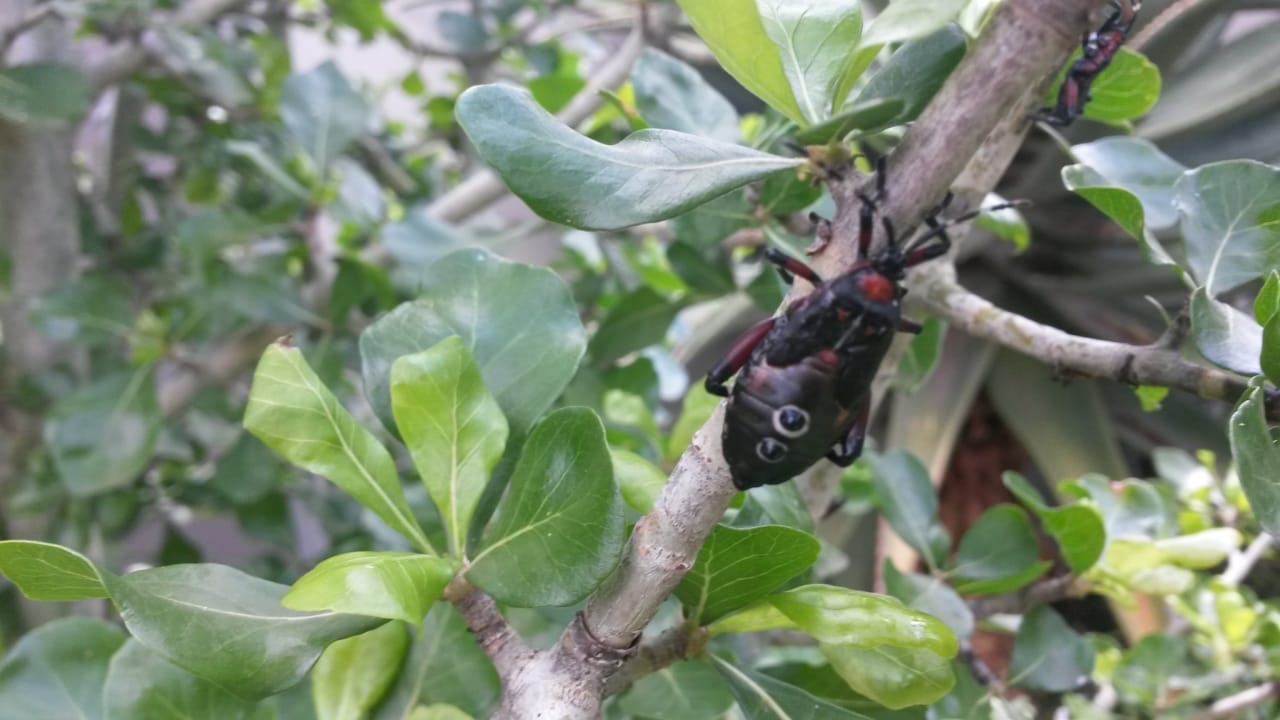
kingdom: Animalia
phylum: Arthropoda
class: Insecta
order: Hemiptera
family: Coreidae
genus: Carlisis
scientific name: Carlisis wahlbergi
